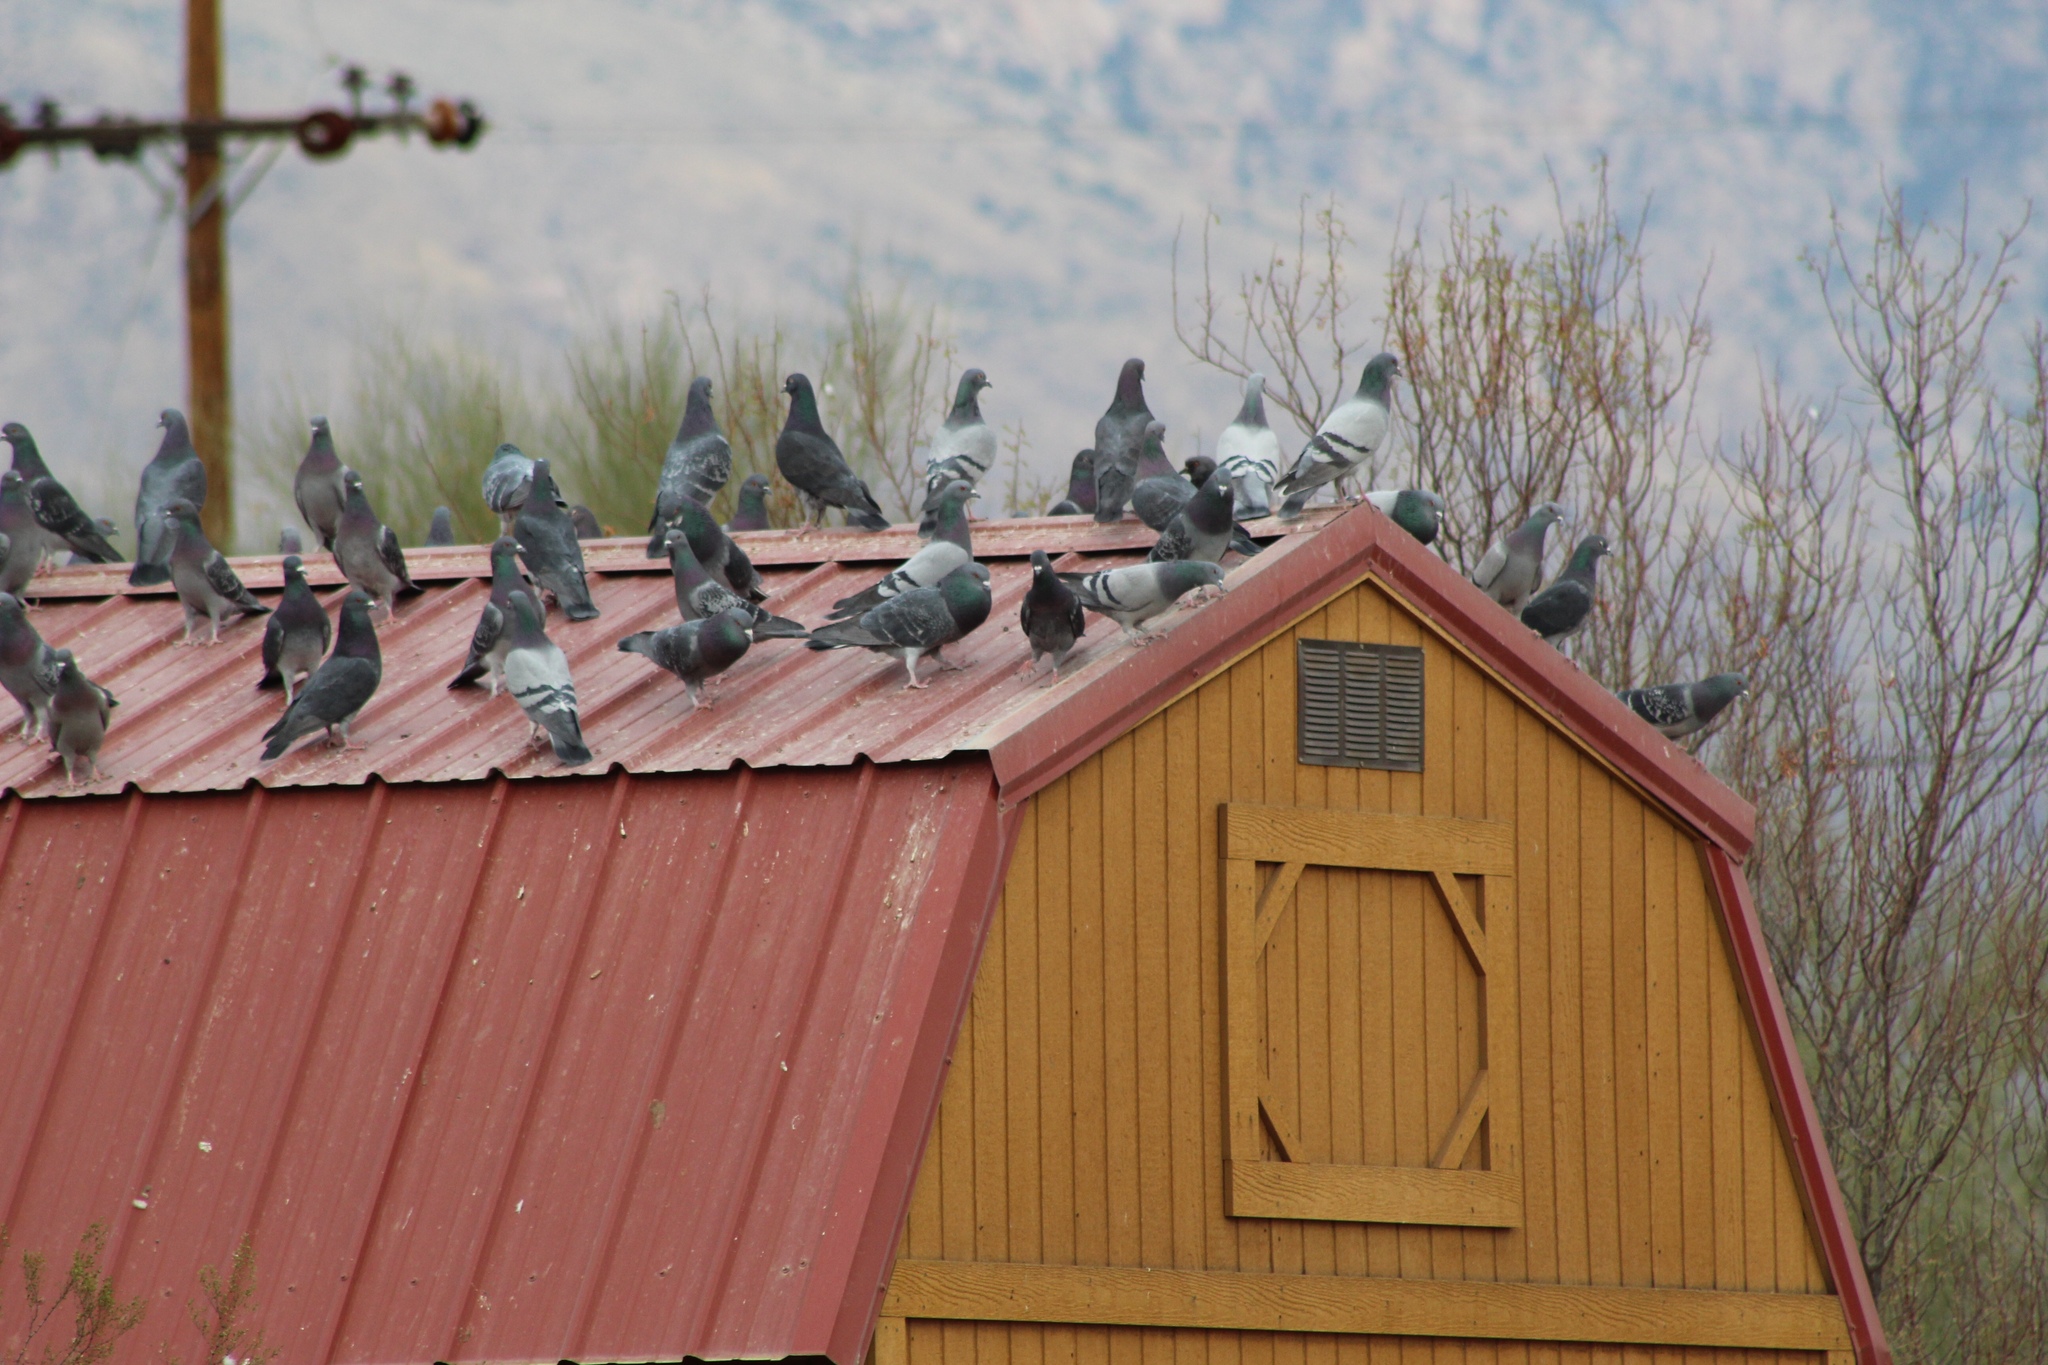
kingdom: Animalia
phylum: Chordata
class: Aves
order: Columbiformes
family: Columbidae
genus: Columba
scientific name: Columba livia
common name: Rock pigeon
